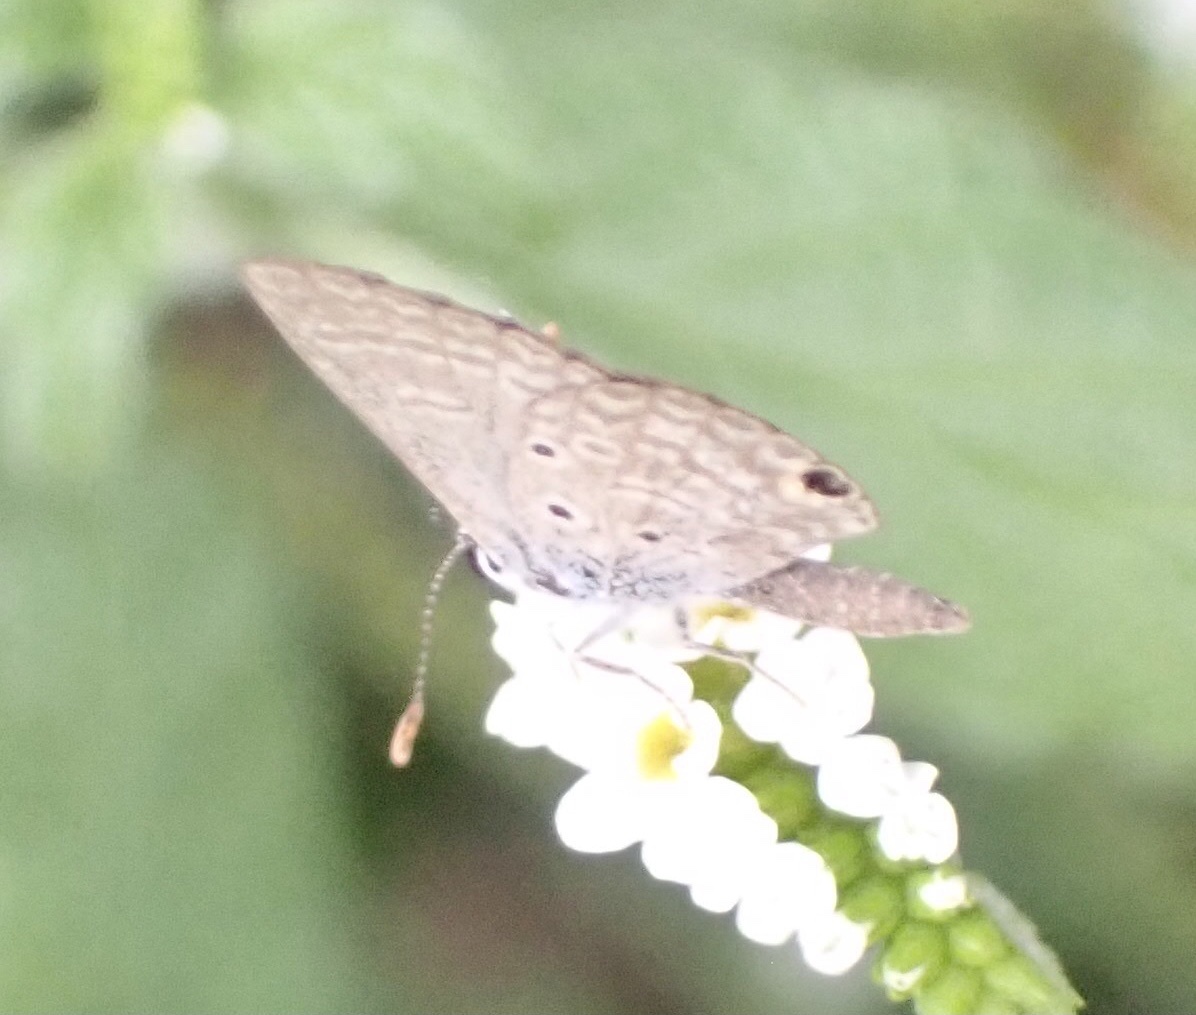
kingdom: Animalia
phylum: Arthropoda
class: Insecta
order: Lepidoptera
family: Lycaenidae
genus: Hemiargus
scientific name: Hemiargus hanno
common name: Common blue
